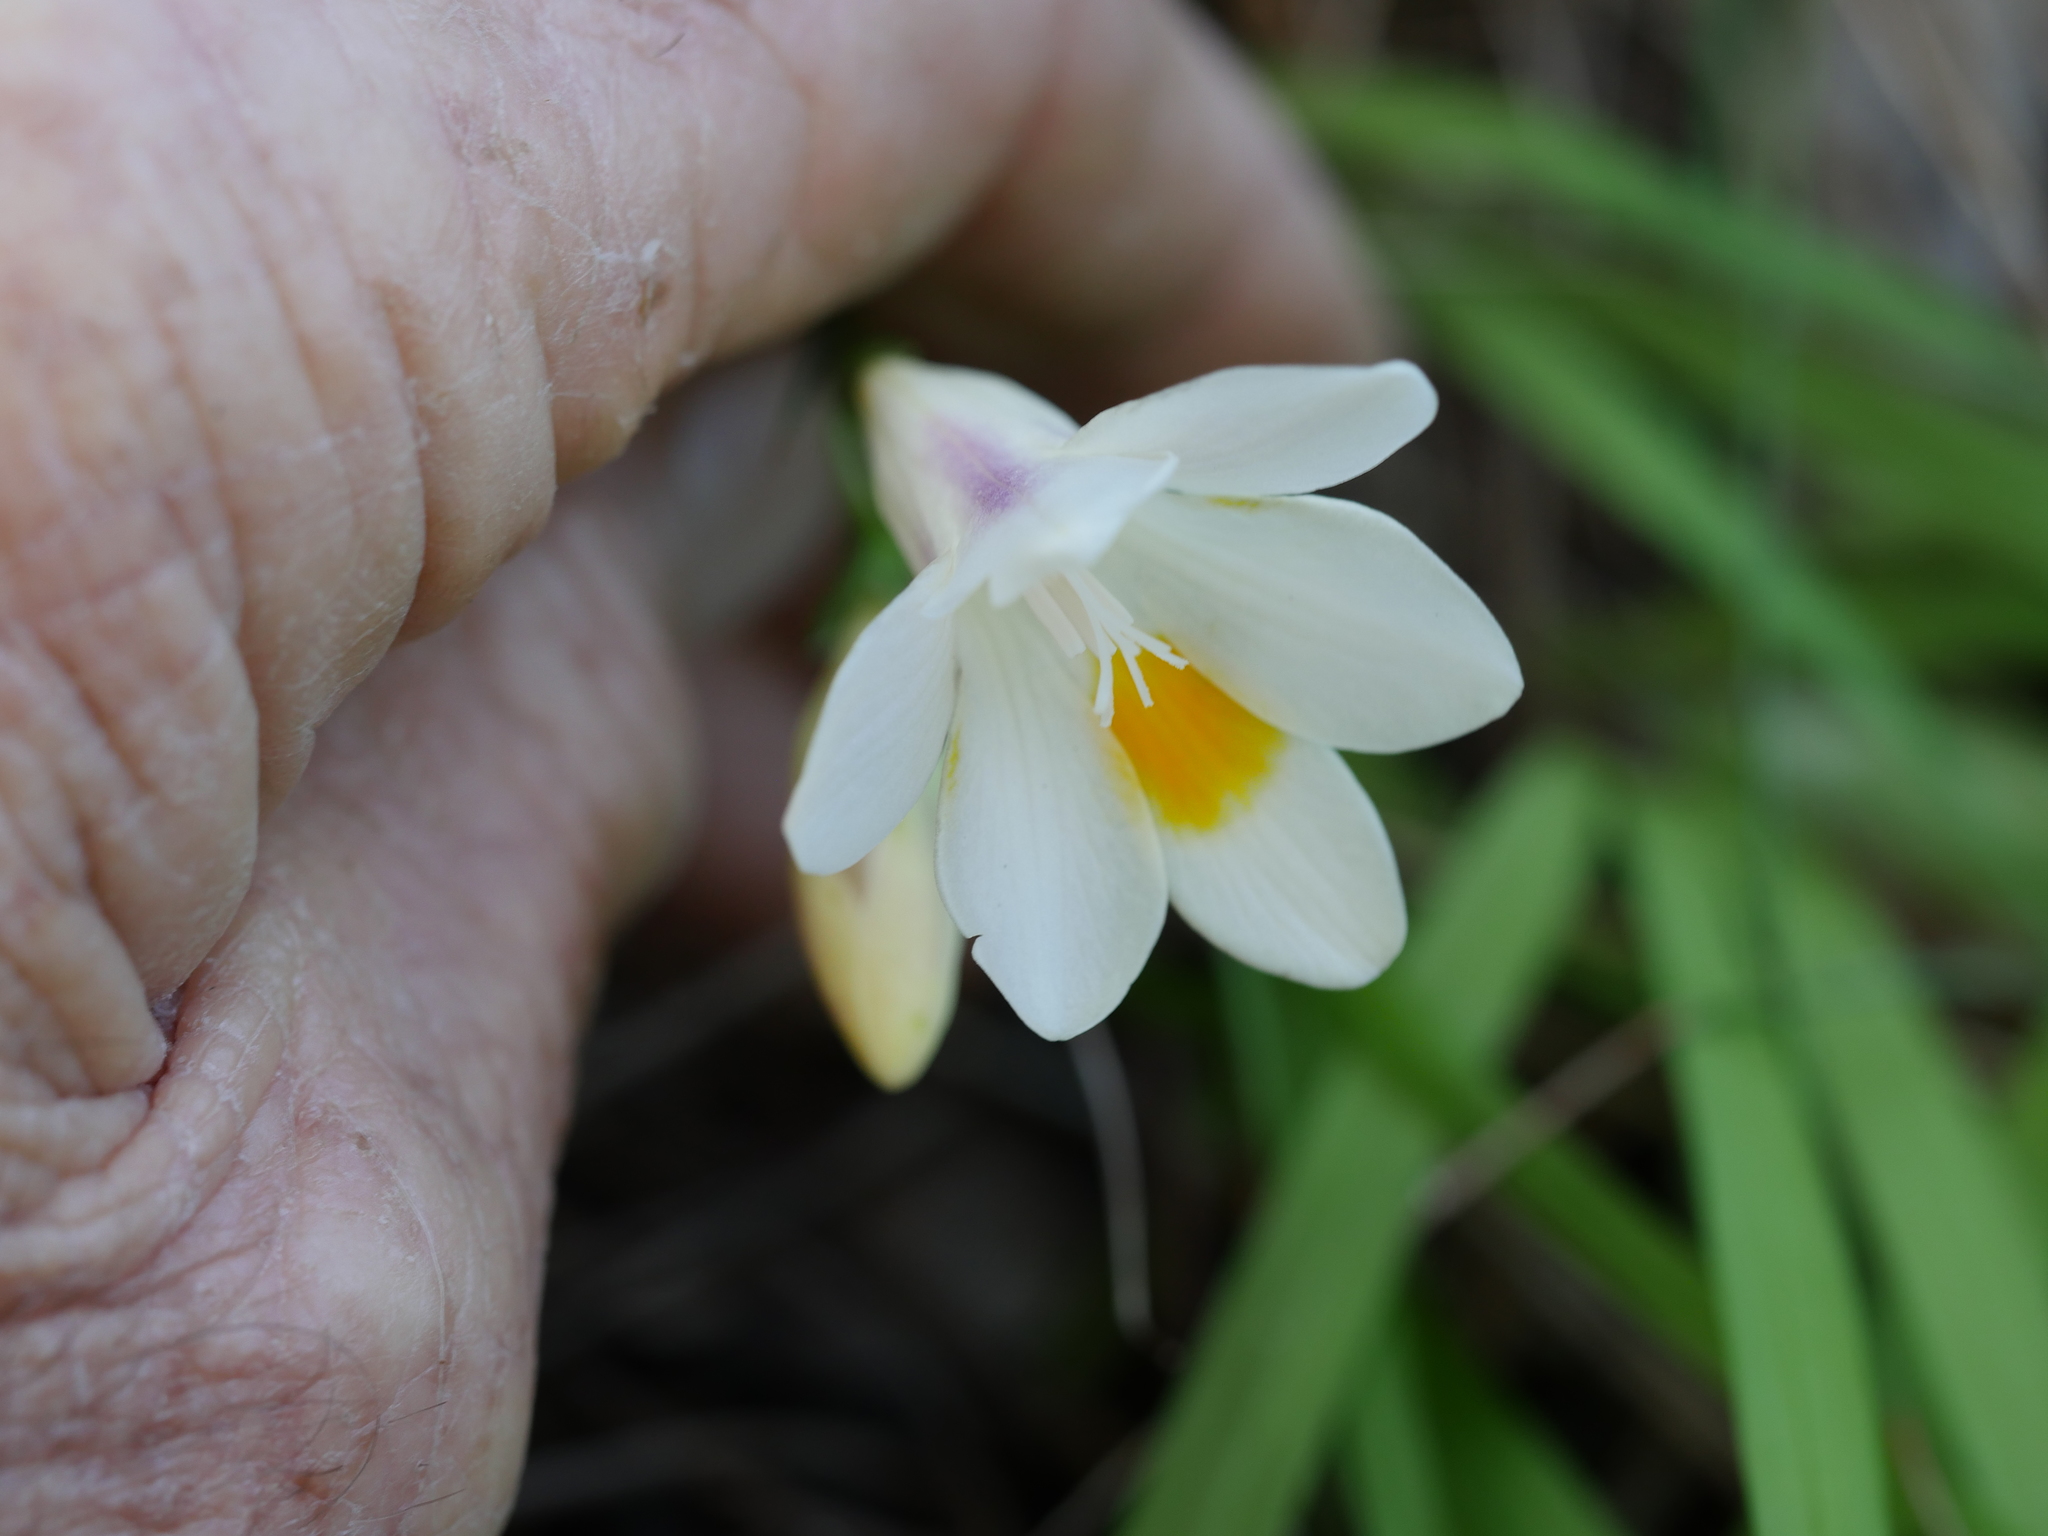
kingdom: Plantae
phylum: Tracheophyta
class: Liliopsida
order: Asparagales
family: Iridaceae
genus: Freesia
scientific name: Freesia leichtlinii
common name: Freesia
